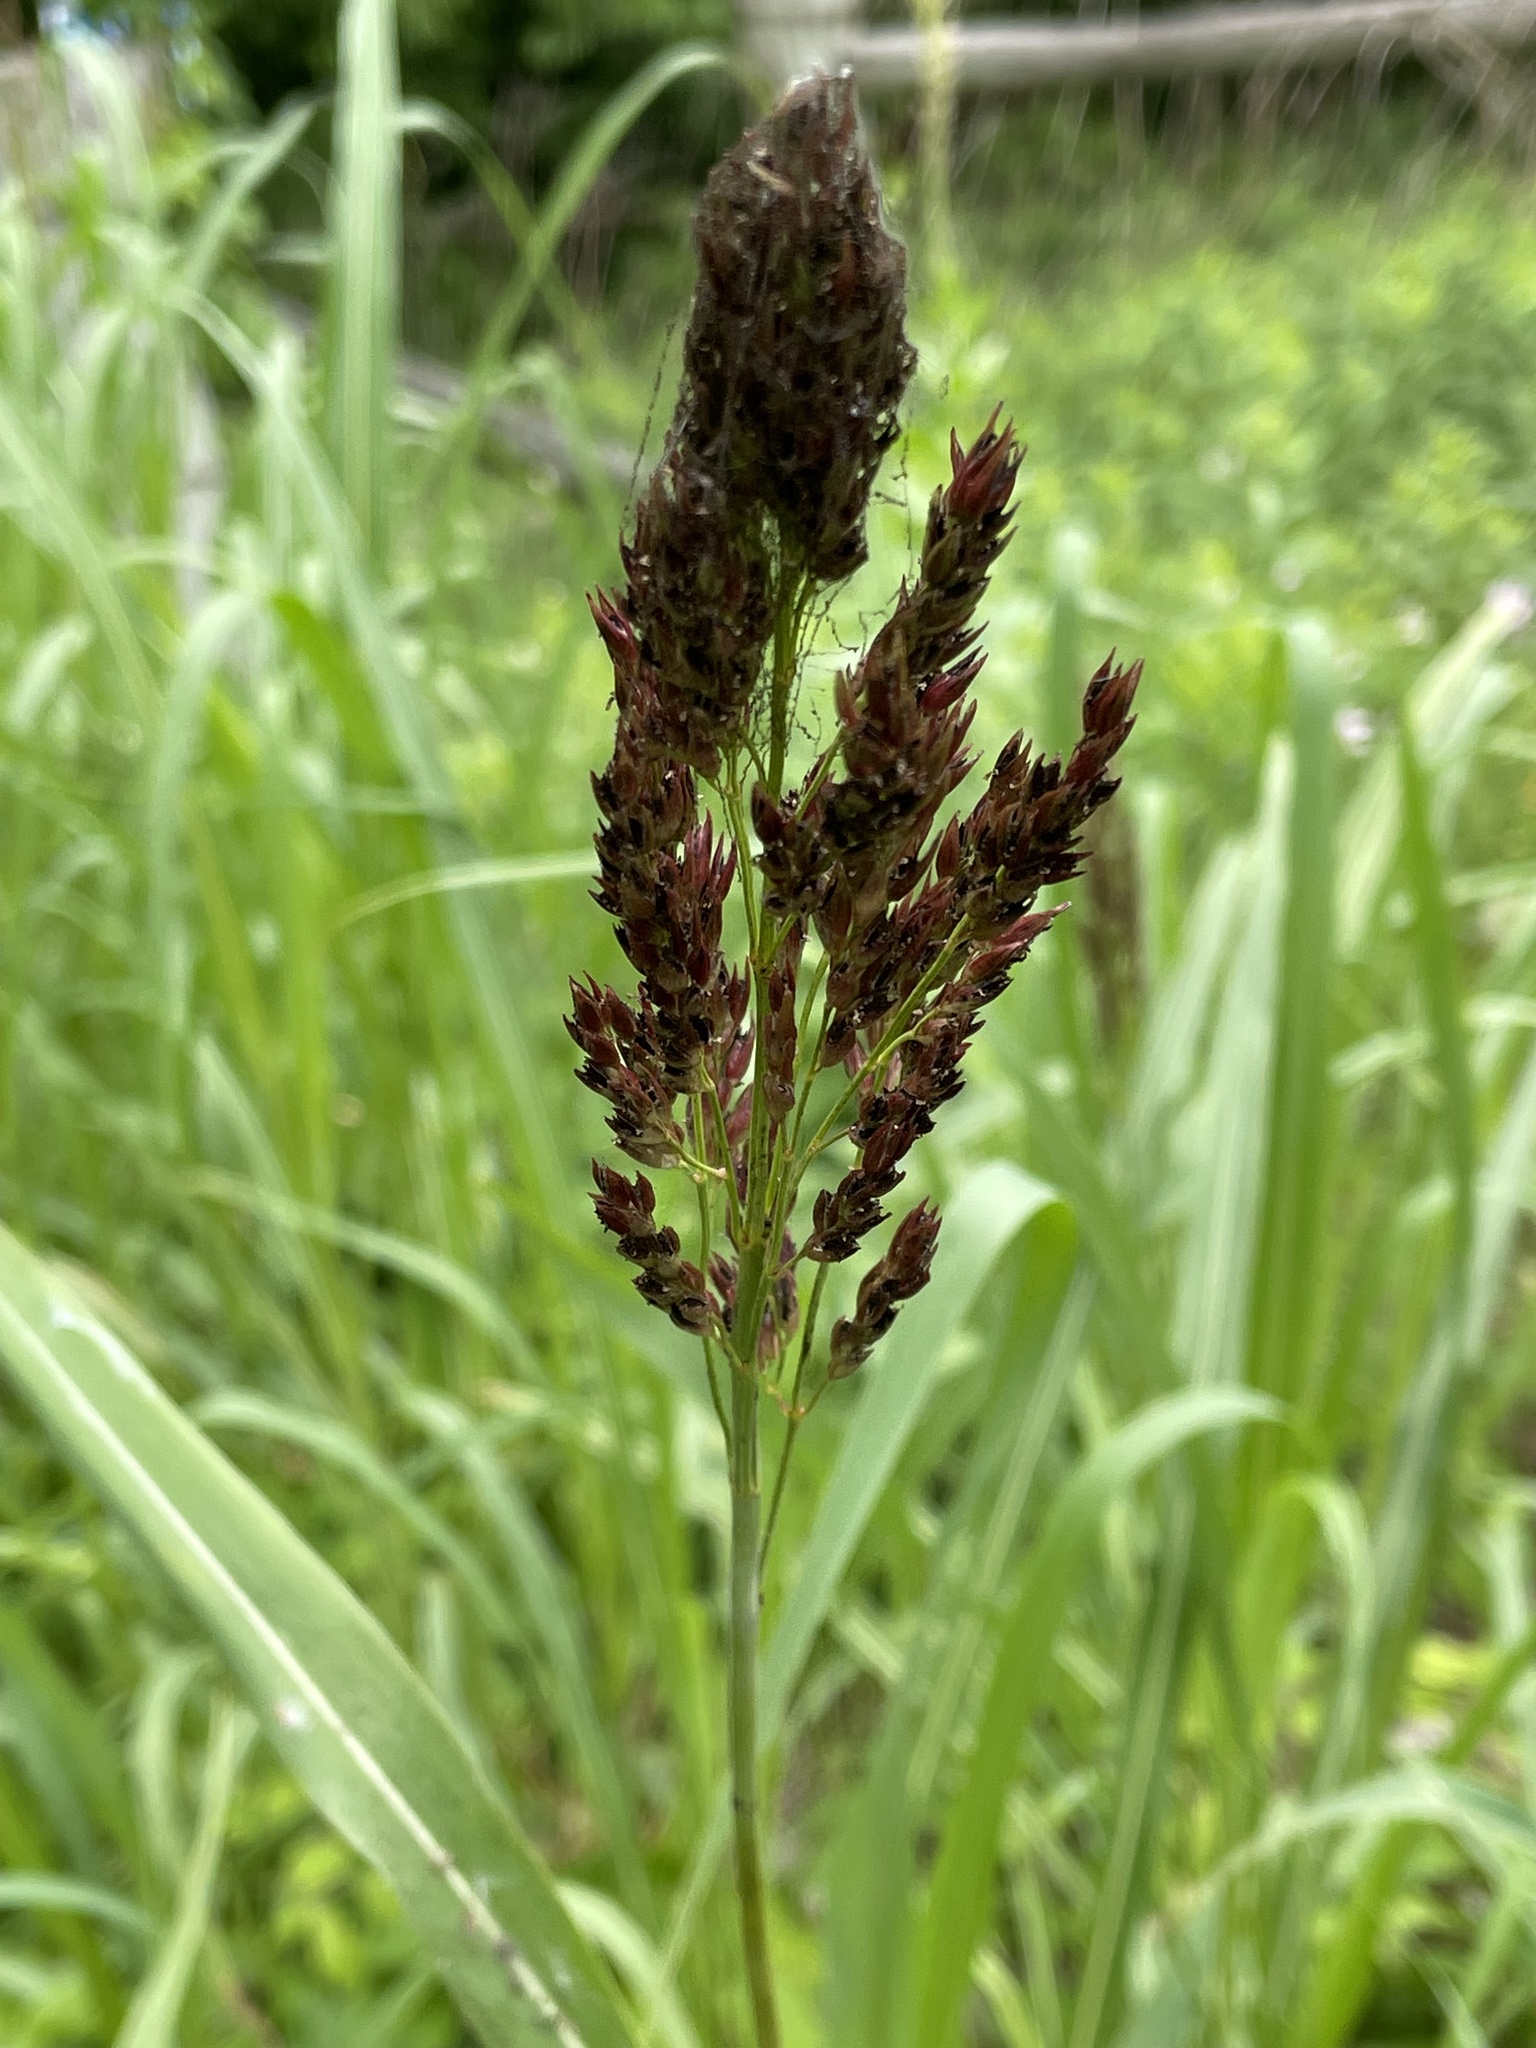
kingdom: Plantae
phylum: Tracheophyta
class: Liliopsida
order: Poales
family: Poaceae
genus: Sorghum
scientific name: Sorghum halepense
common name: Johnson-grass
